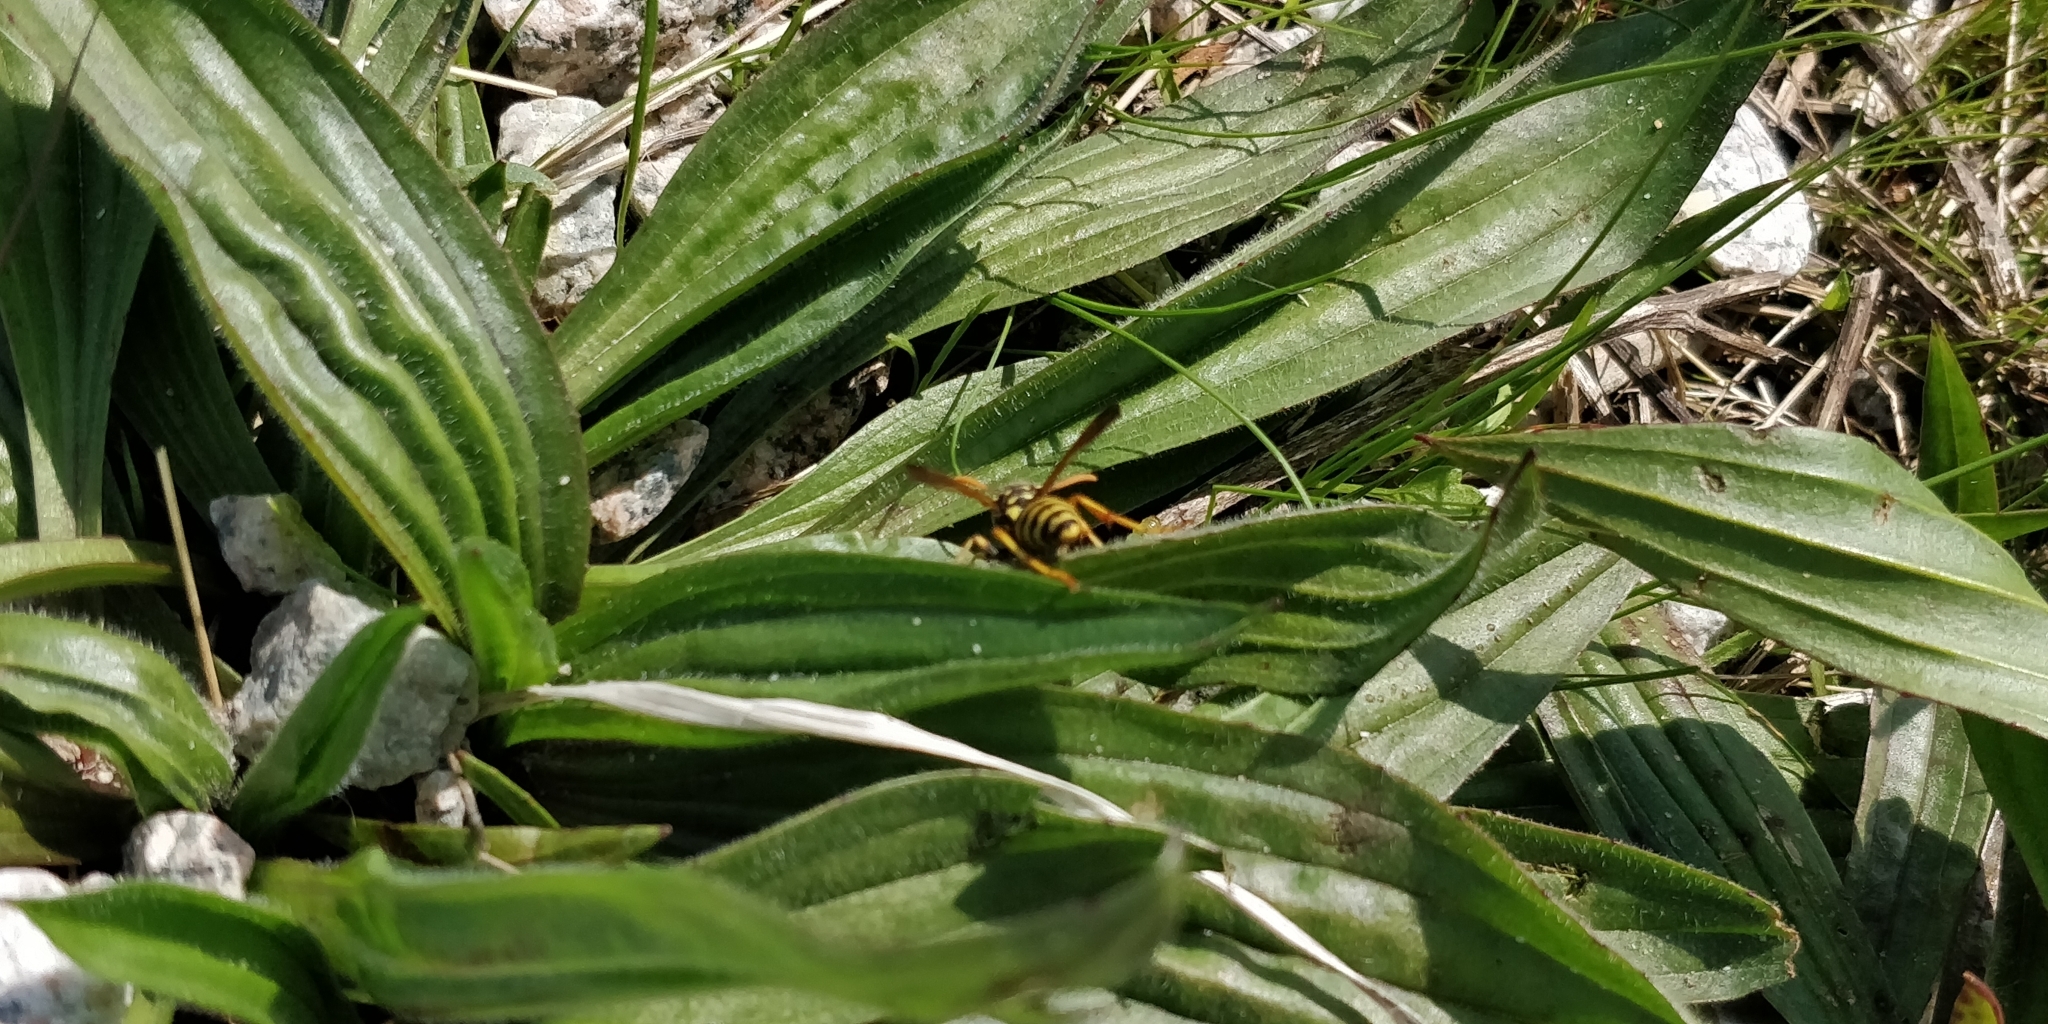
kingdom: Animalia
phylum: Arthropoda
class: Insecta
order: Hymenoptera
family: Eumenidae
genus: Polistes
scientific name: Polistes dominula
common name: Paper wasp
